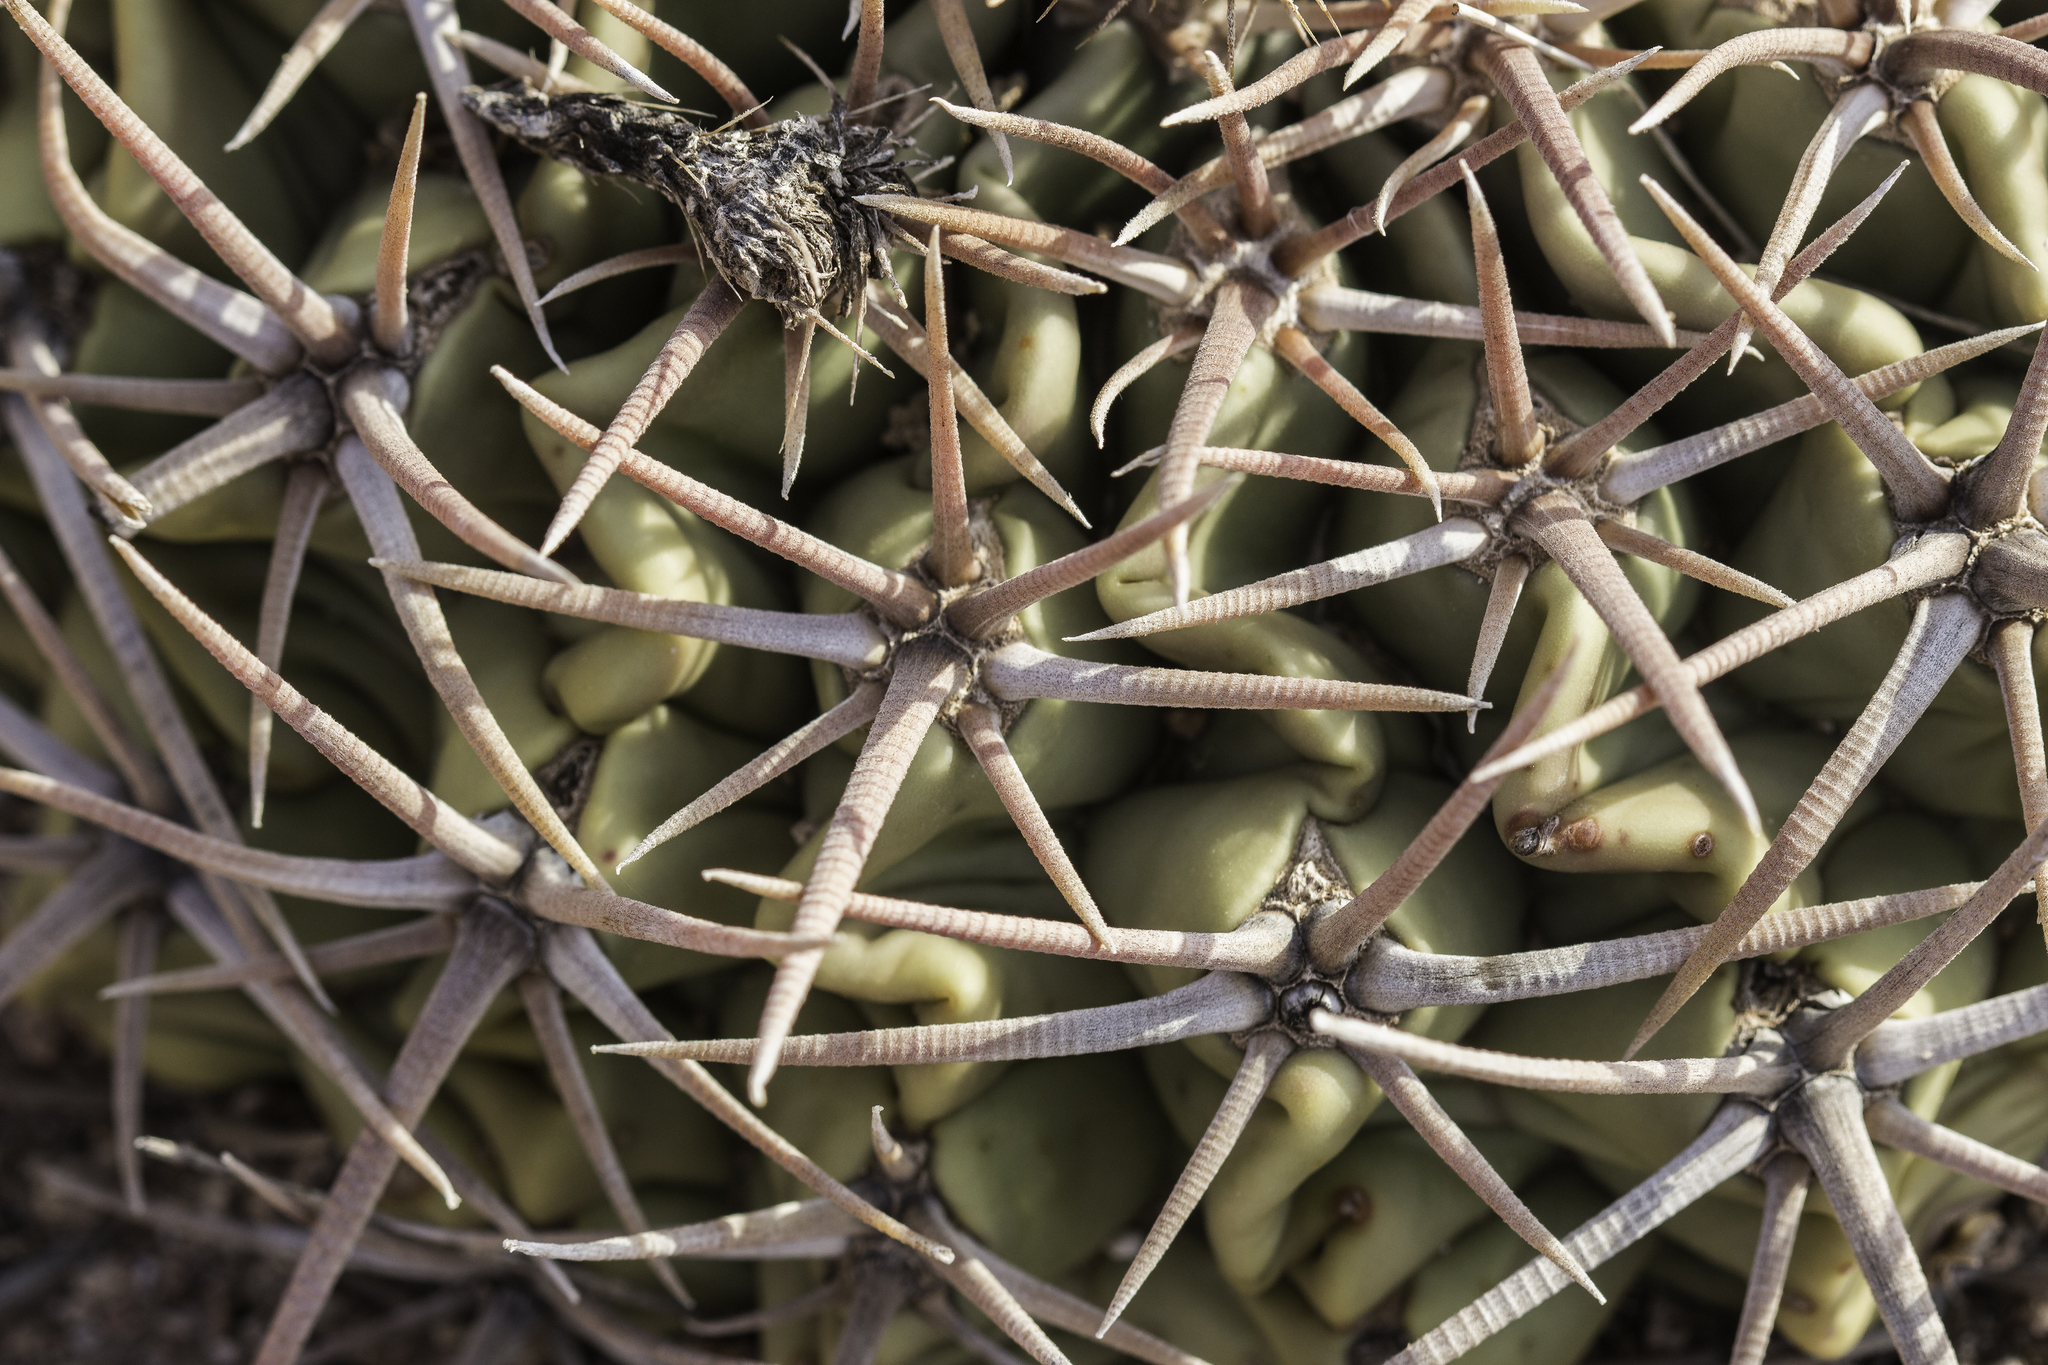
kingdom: Plantae
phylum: Tracheophyta
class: Magnoliopsida
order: Caryophyllales
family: Cactaceae
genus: Echinocactus
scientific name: Echinocactus texensis
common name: Devil's pincushion
